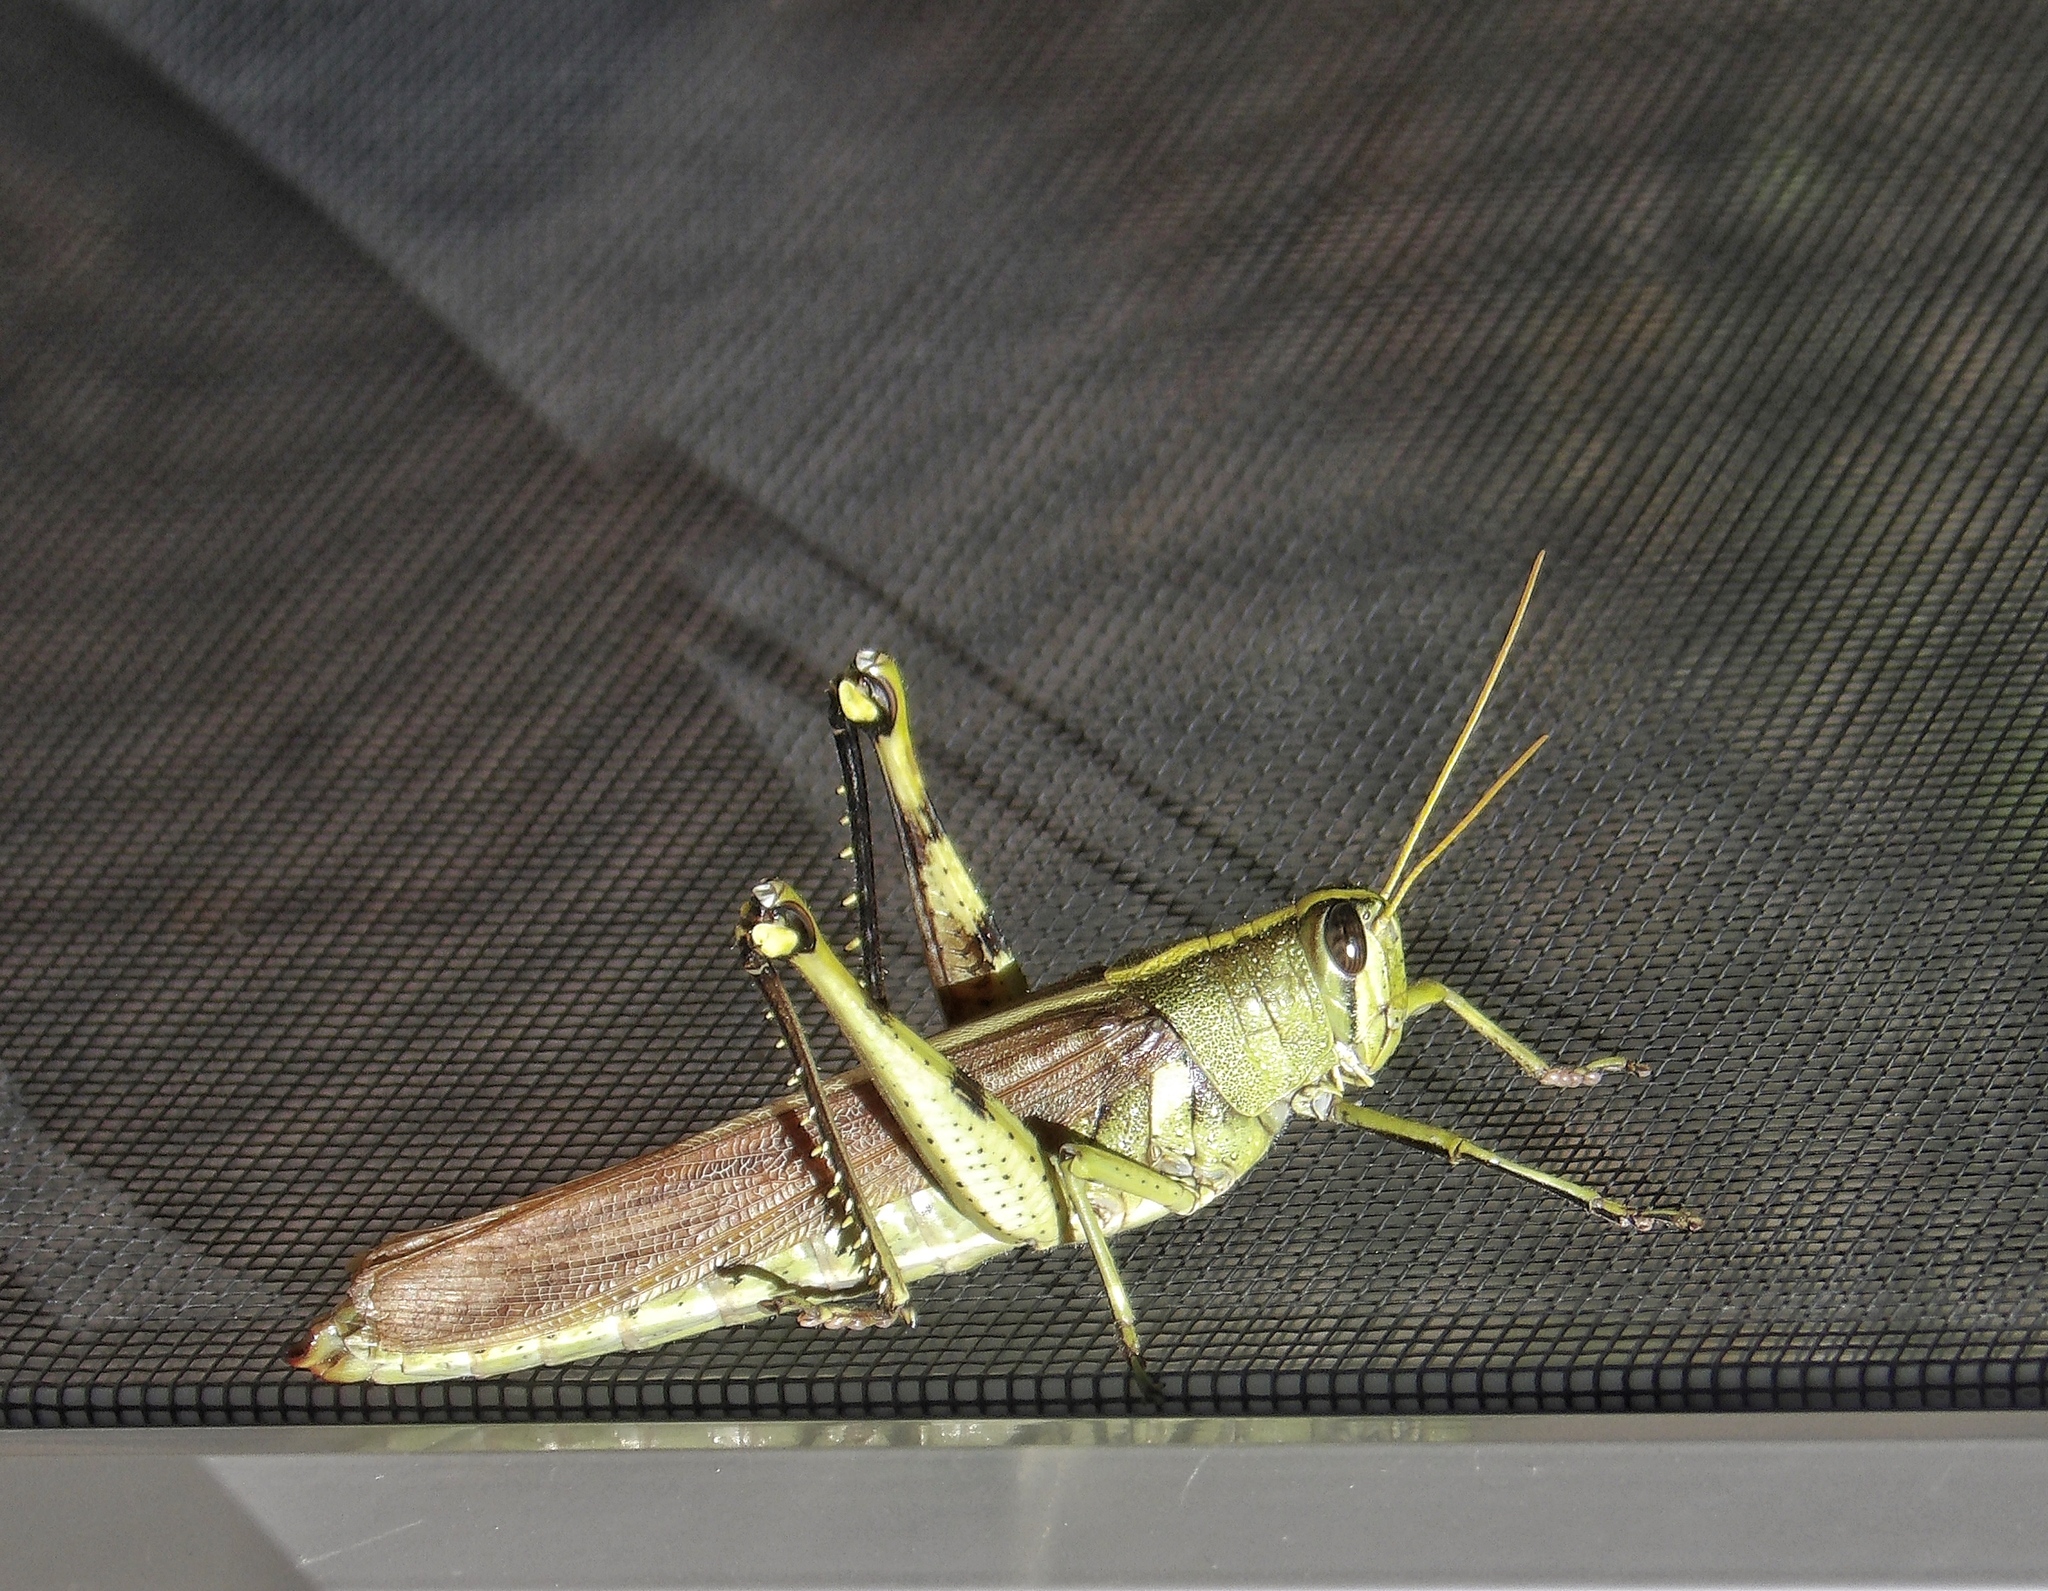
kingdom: Animalia
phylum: Arthropoda
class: Insecta
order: Orthoptera
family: Acrididae
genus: Schistocerca
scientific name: Schistocerca obscura
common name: Obscure bird grasshopper
